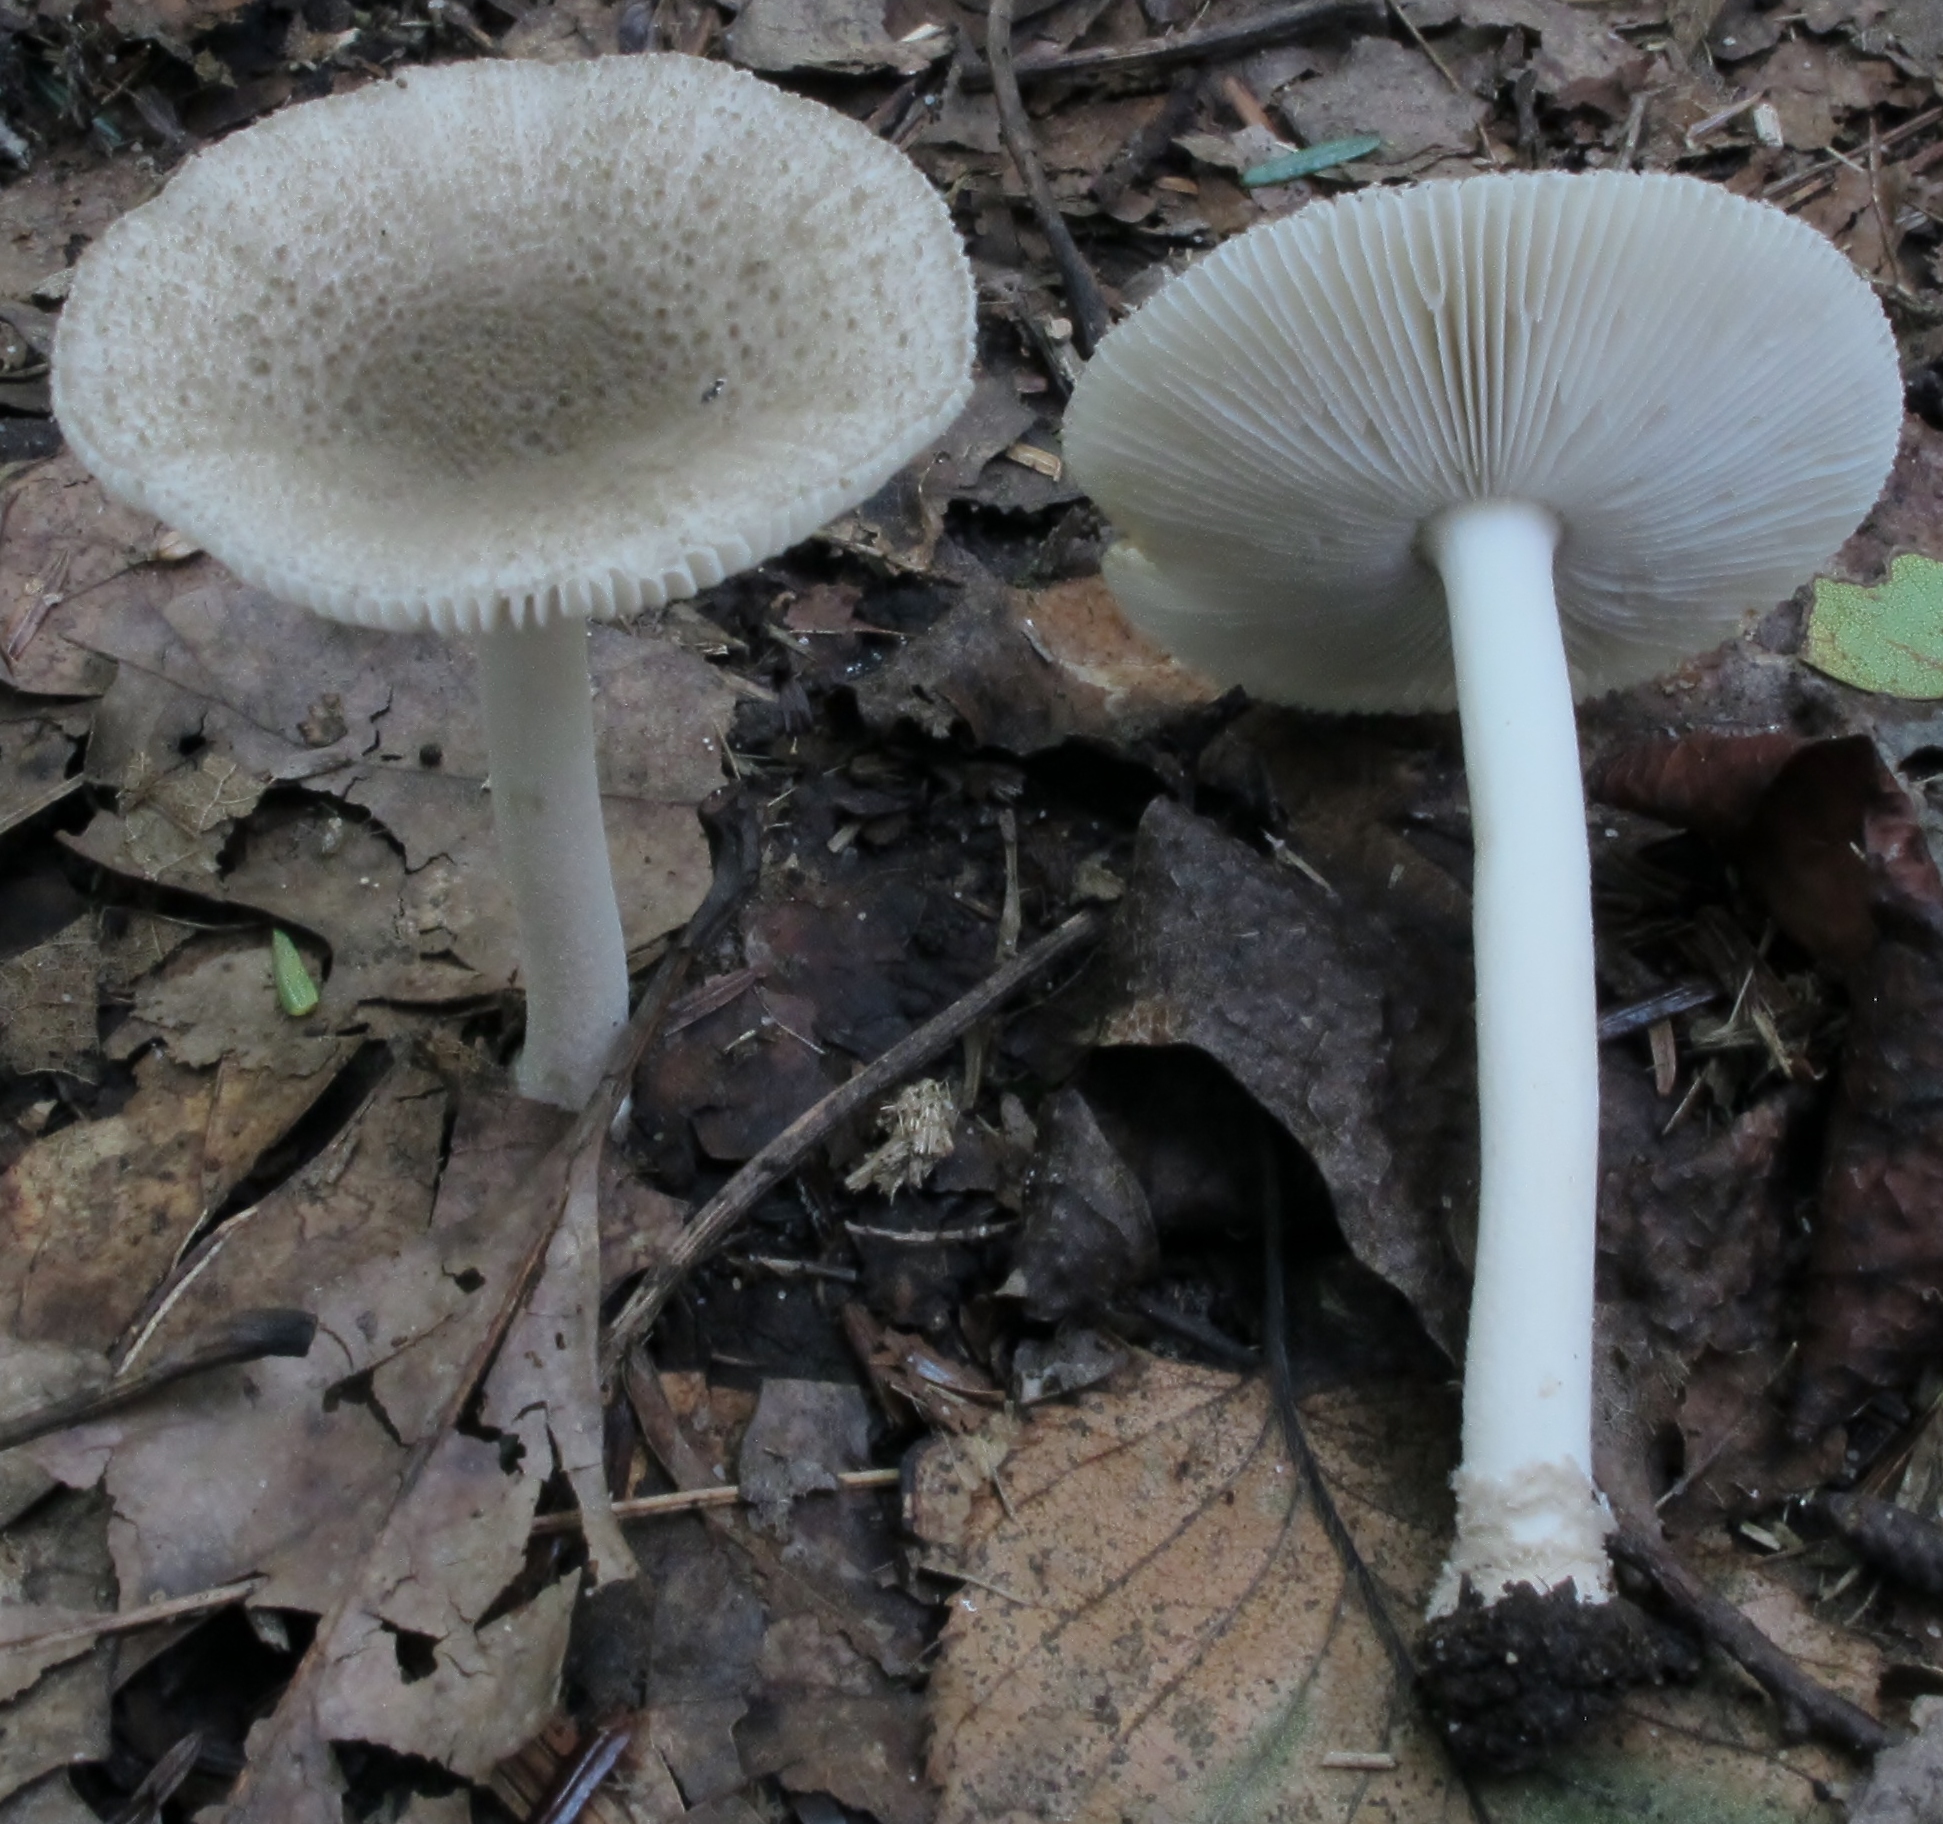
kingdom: Fungi
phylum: Basidiomycota
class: Agaricomycetes
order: Agaricales
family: Amanitaceae
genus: Amanita
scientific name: Amanita farinosa
